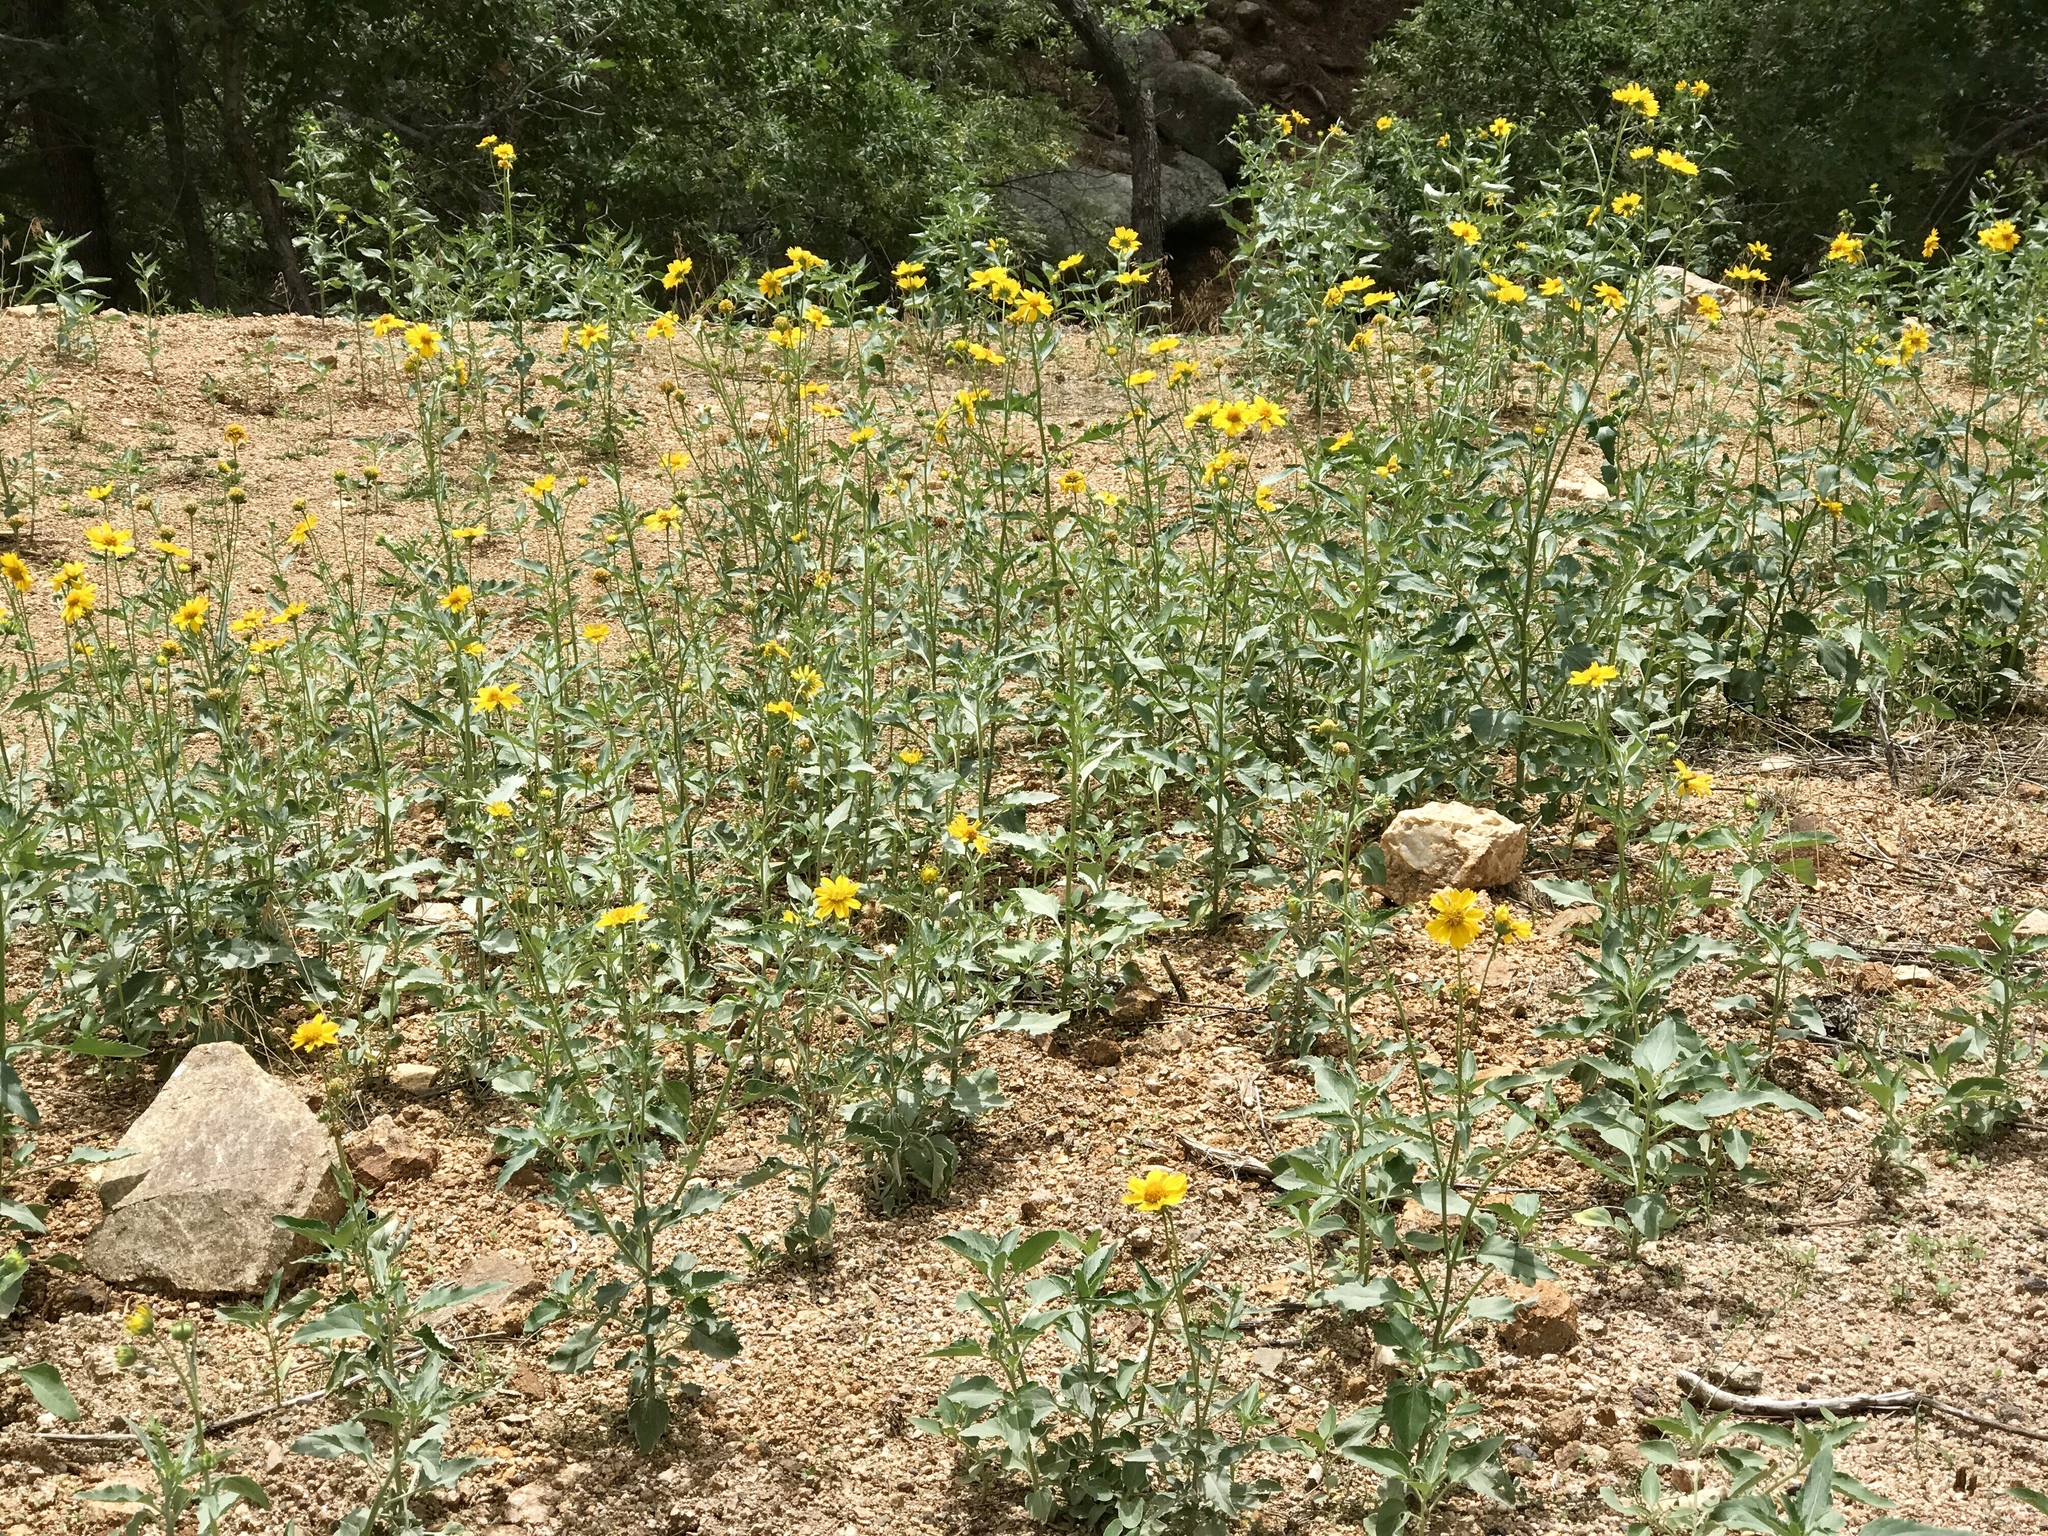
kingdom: Plantae
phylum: Tracheophyta
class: Magnoliopsida
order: Asterales
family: Asteraceae
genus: Verbesina
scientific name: Verbesina encelioides
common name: Golden crownbeard
